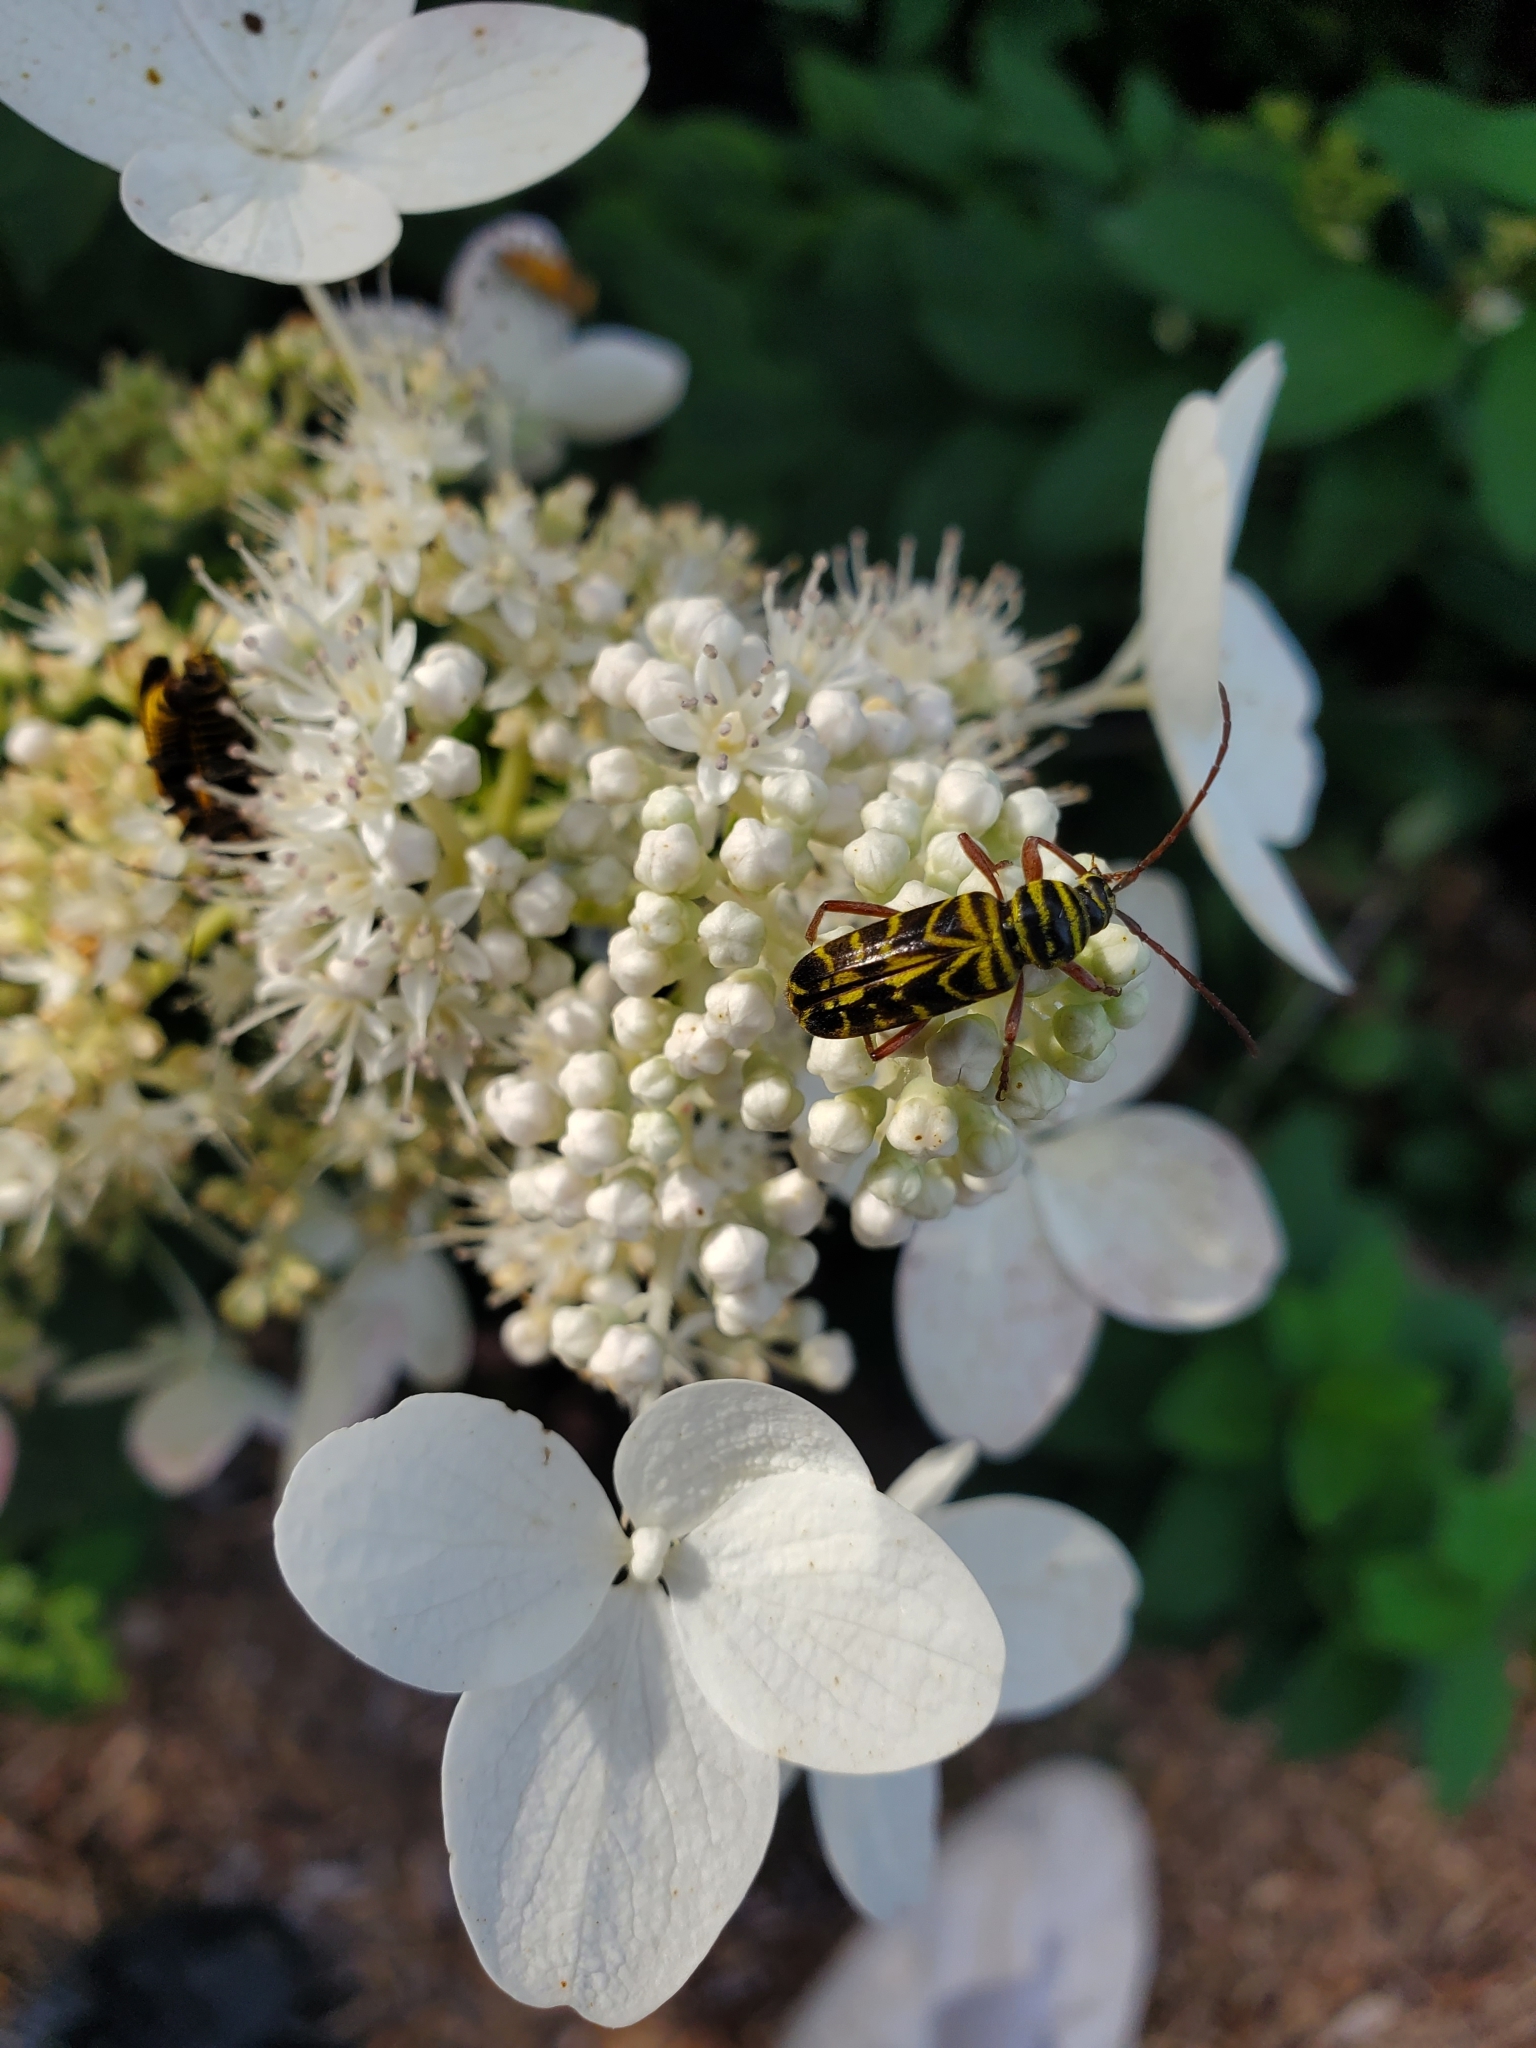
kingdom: Animalia
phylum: Arthropoda
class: Insecta
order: Coleoptera
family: Cerambycidae
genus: Megacyllene
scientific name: Megacyllene robiniae
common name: Locust borer
